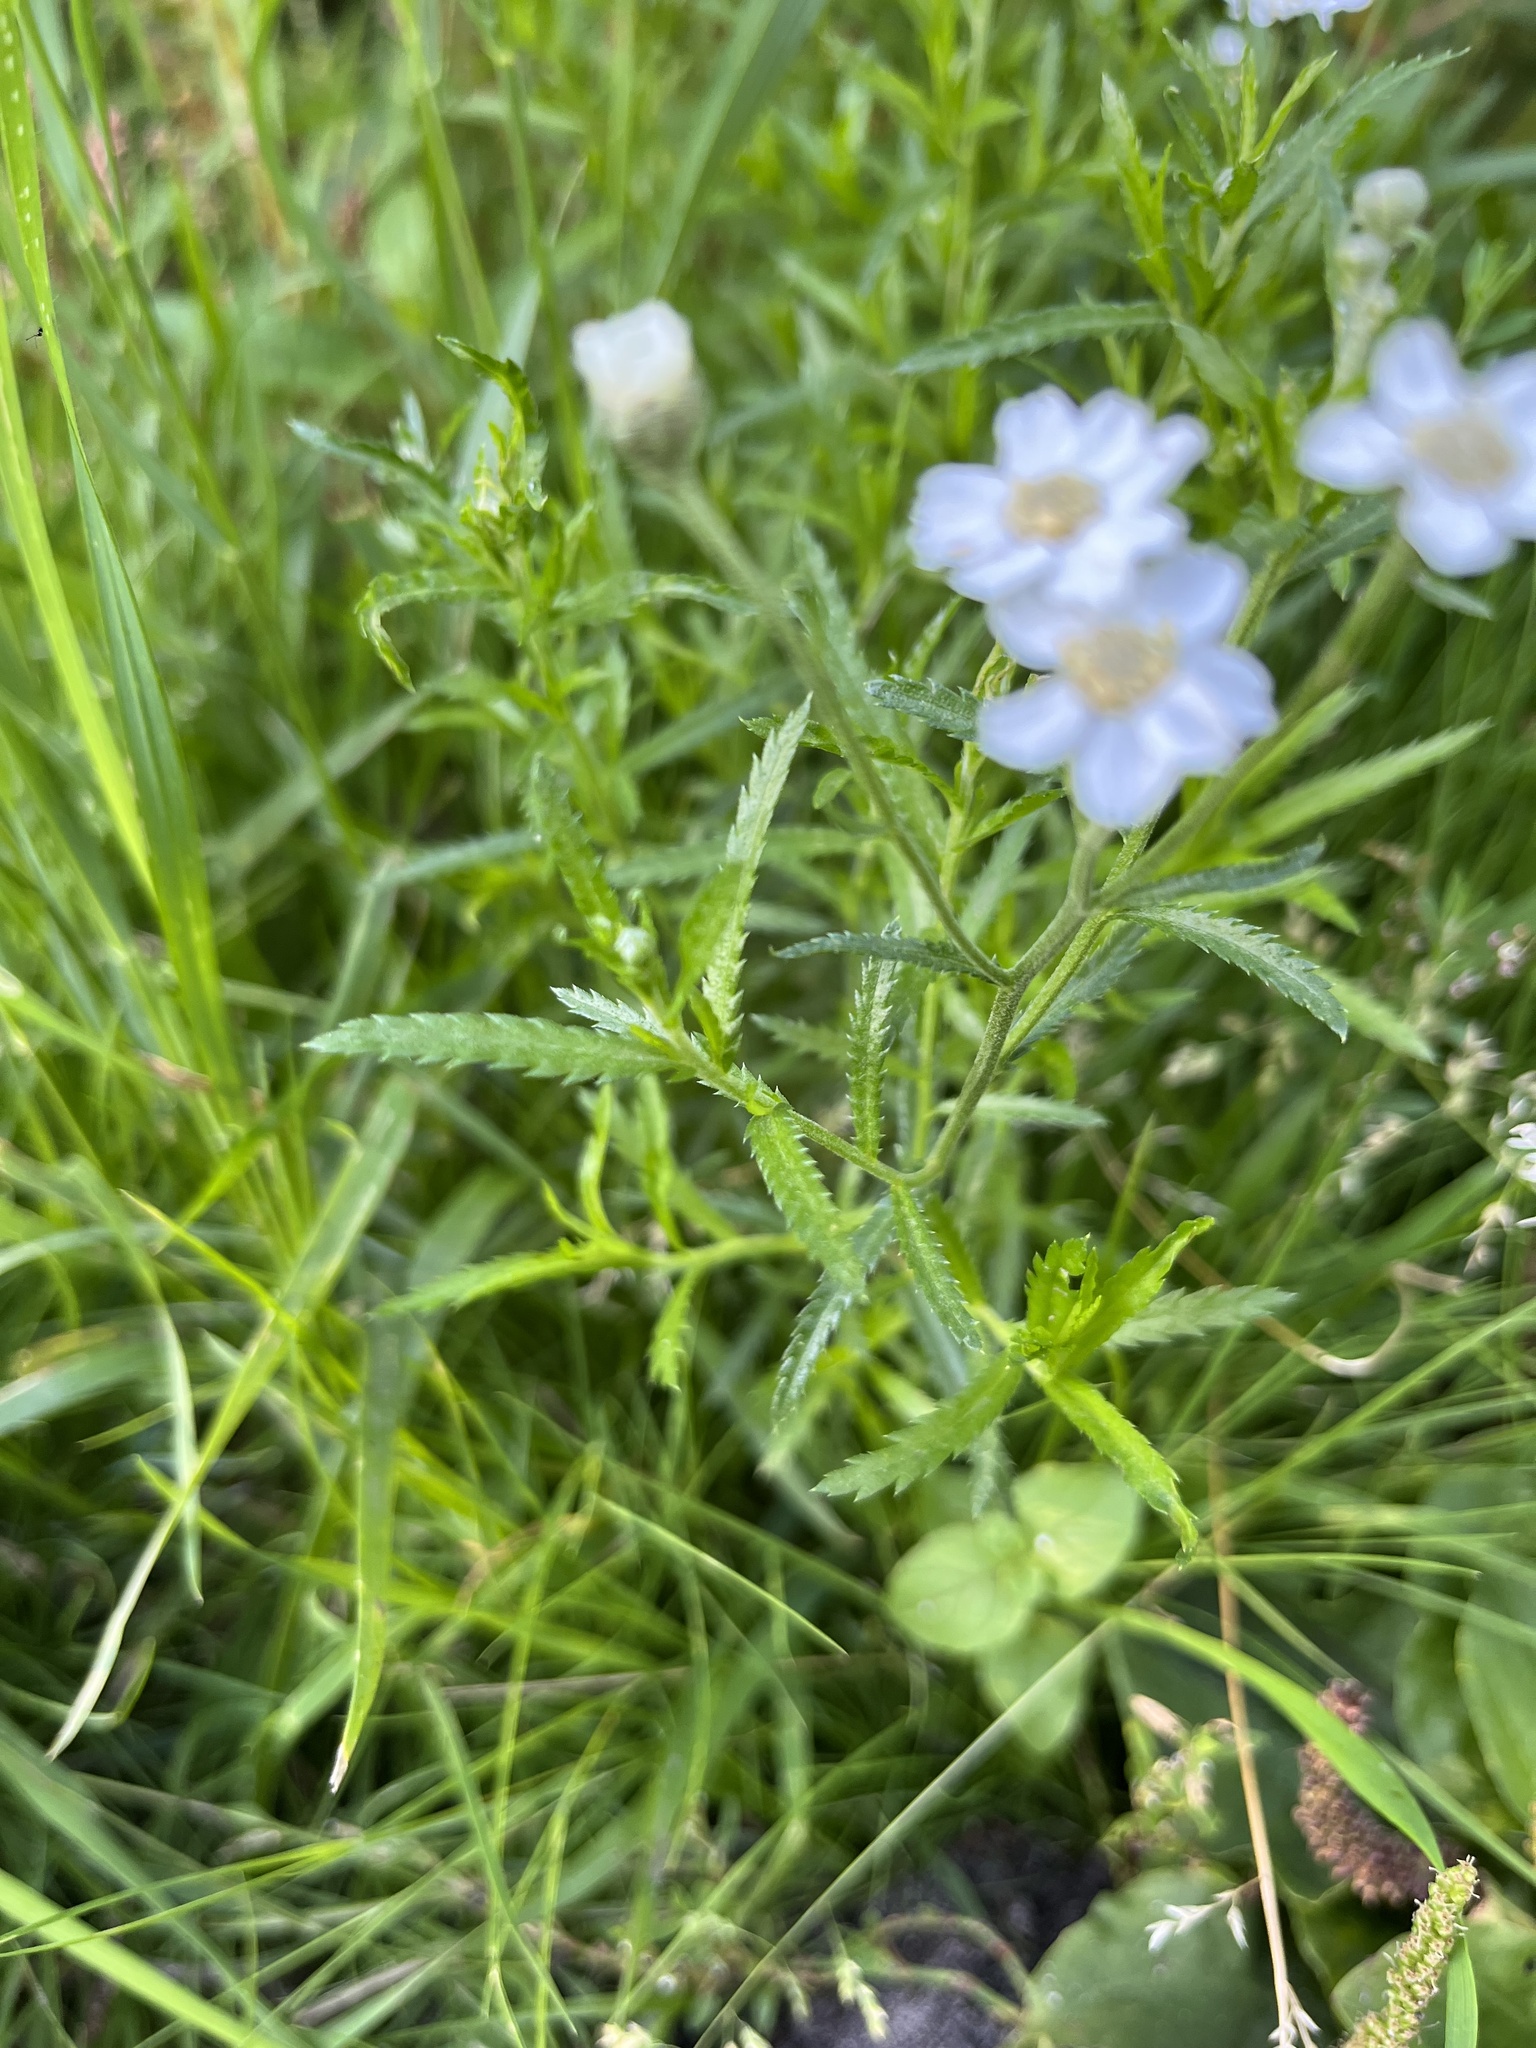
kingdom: Plantae
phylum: Tracheophyta
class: Magnoliopsida
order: Asterales
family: Asteraceae
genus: Achillea
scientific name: Achillea ptarmica
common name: Sneezeweed
